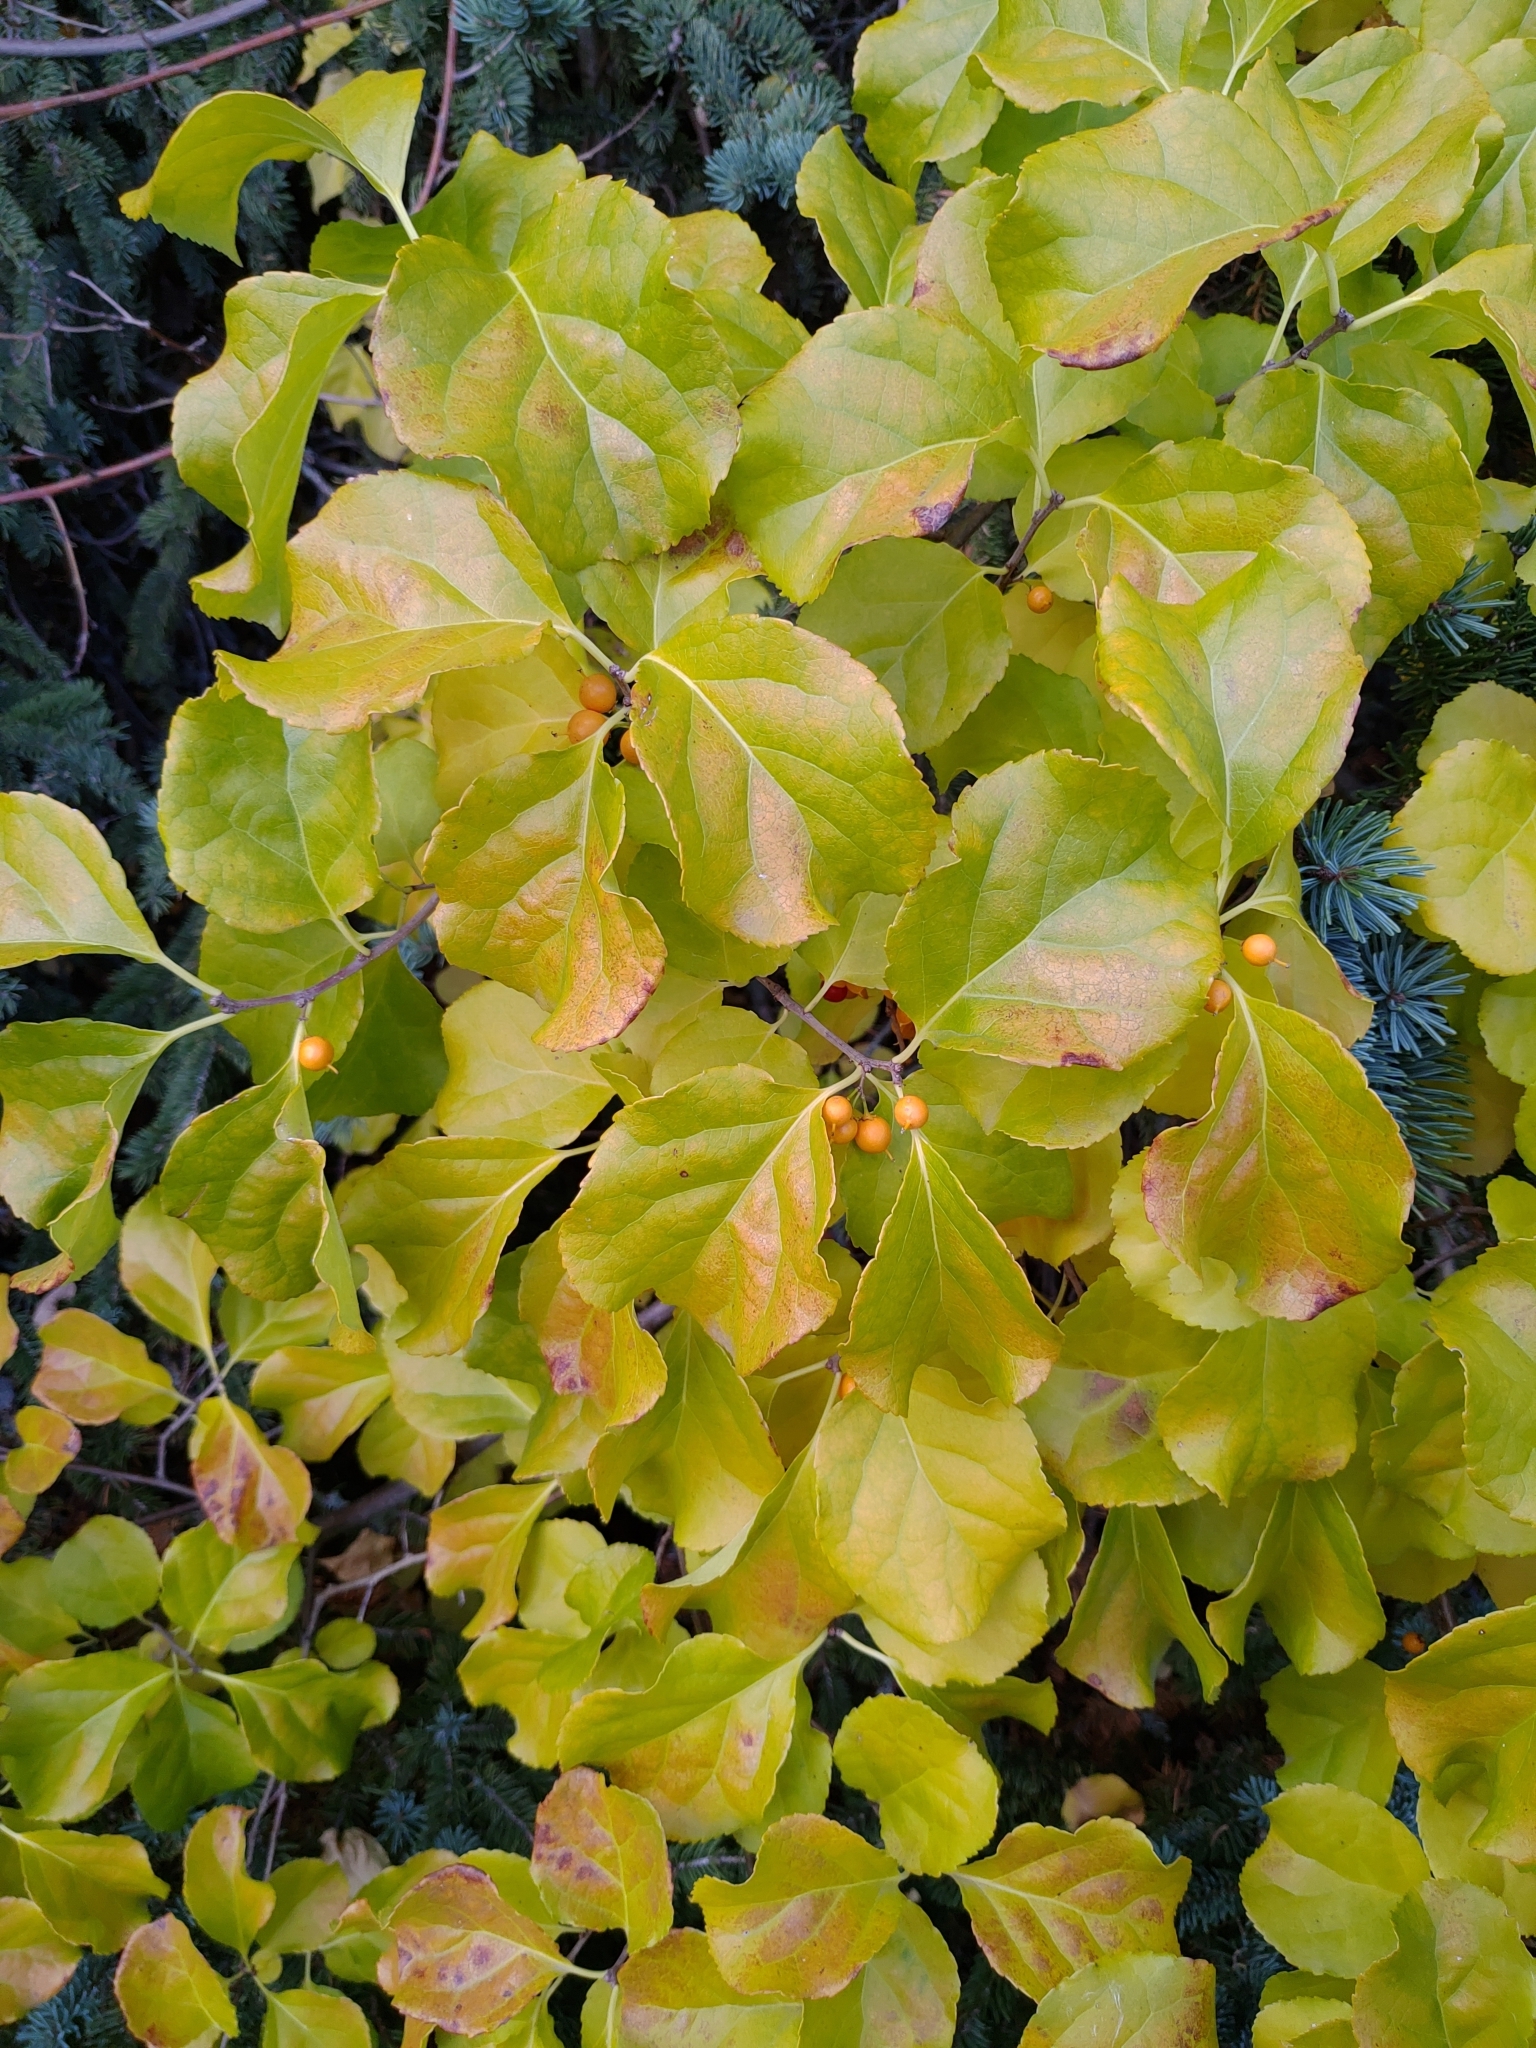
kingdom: Plantae
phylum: Tracheophyta
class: Magnoliopsida
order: Celastrales
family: Celastraceae
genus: Celastrus
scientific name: Celastrus orbiculatus
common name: Oriental bittersweet
